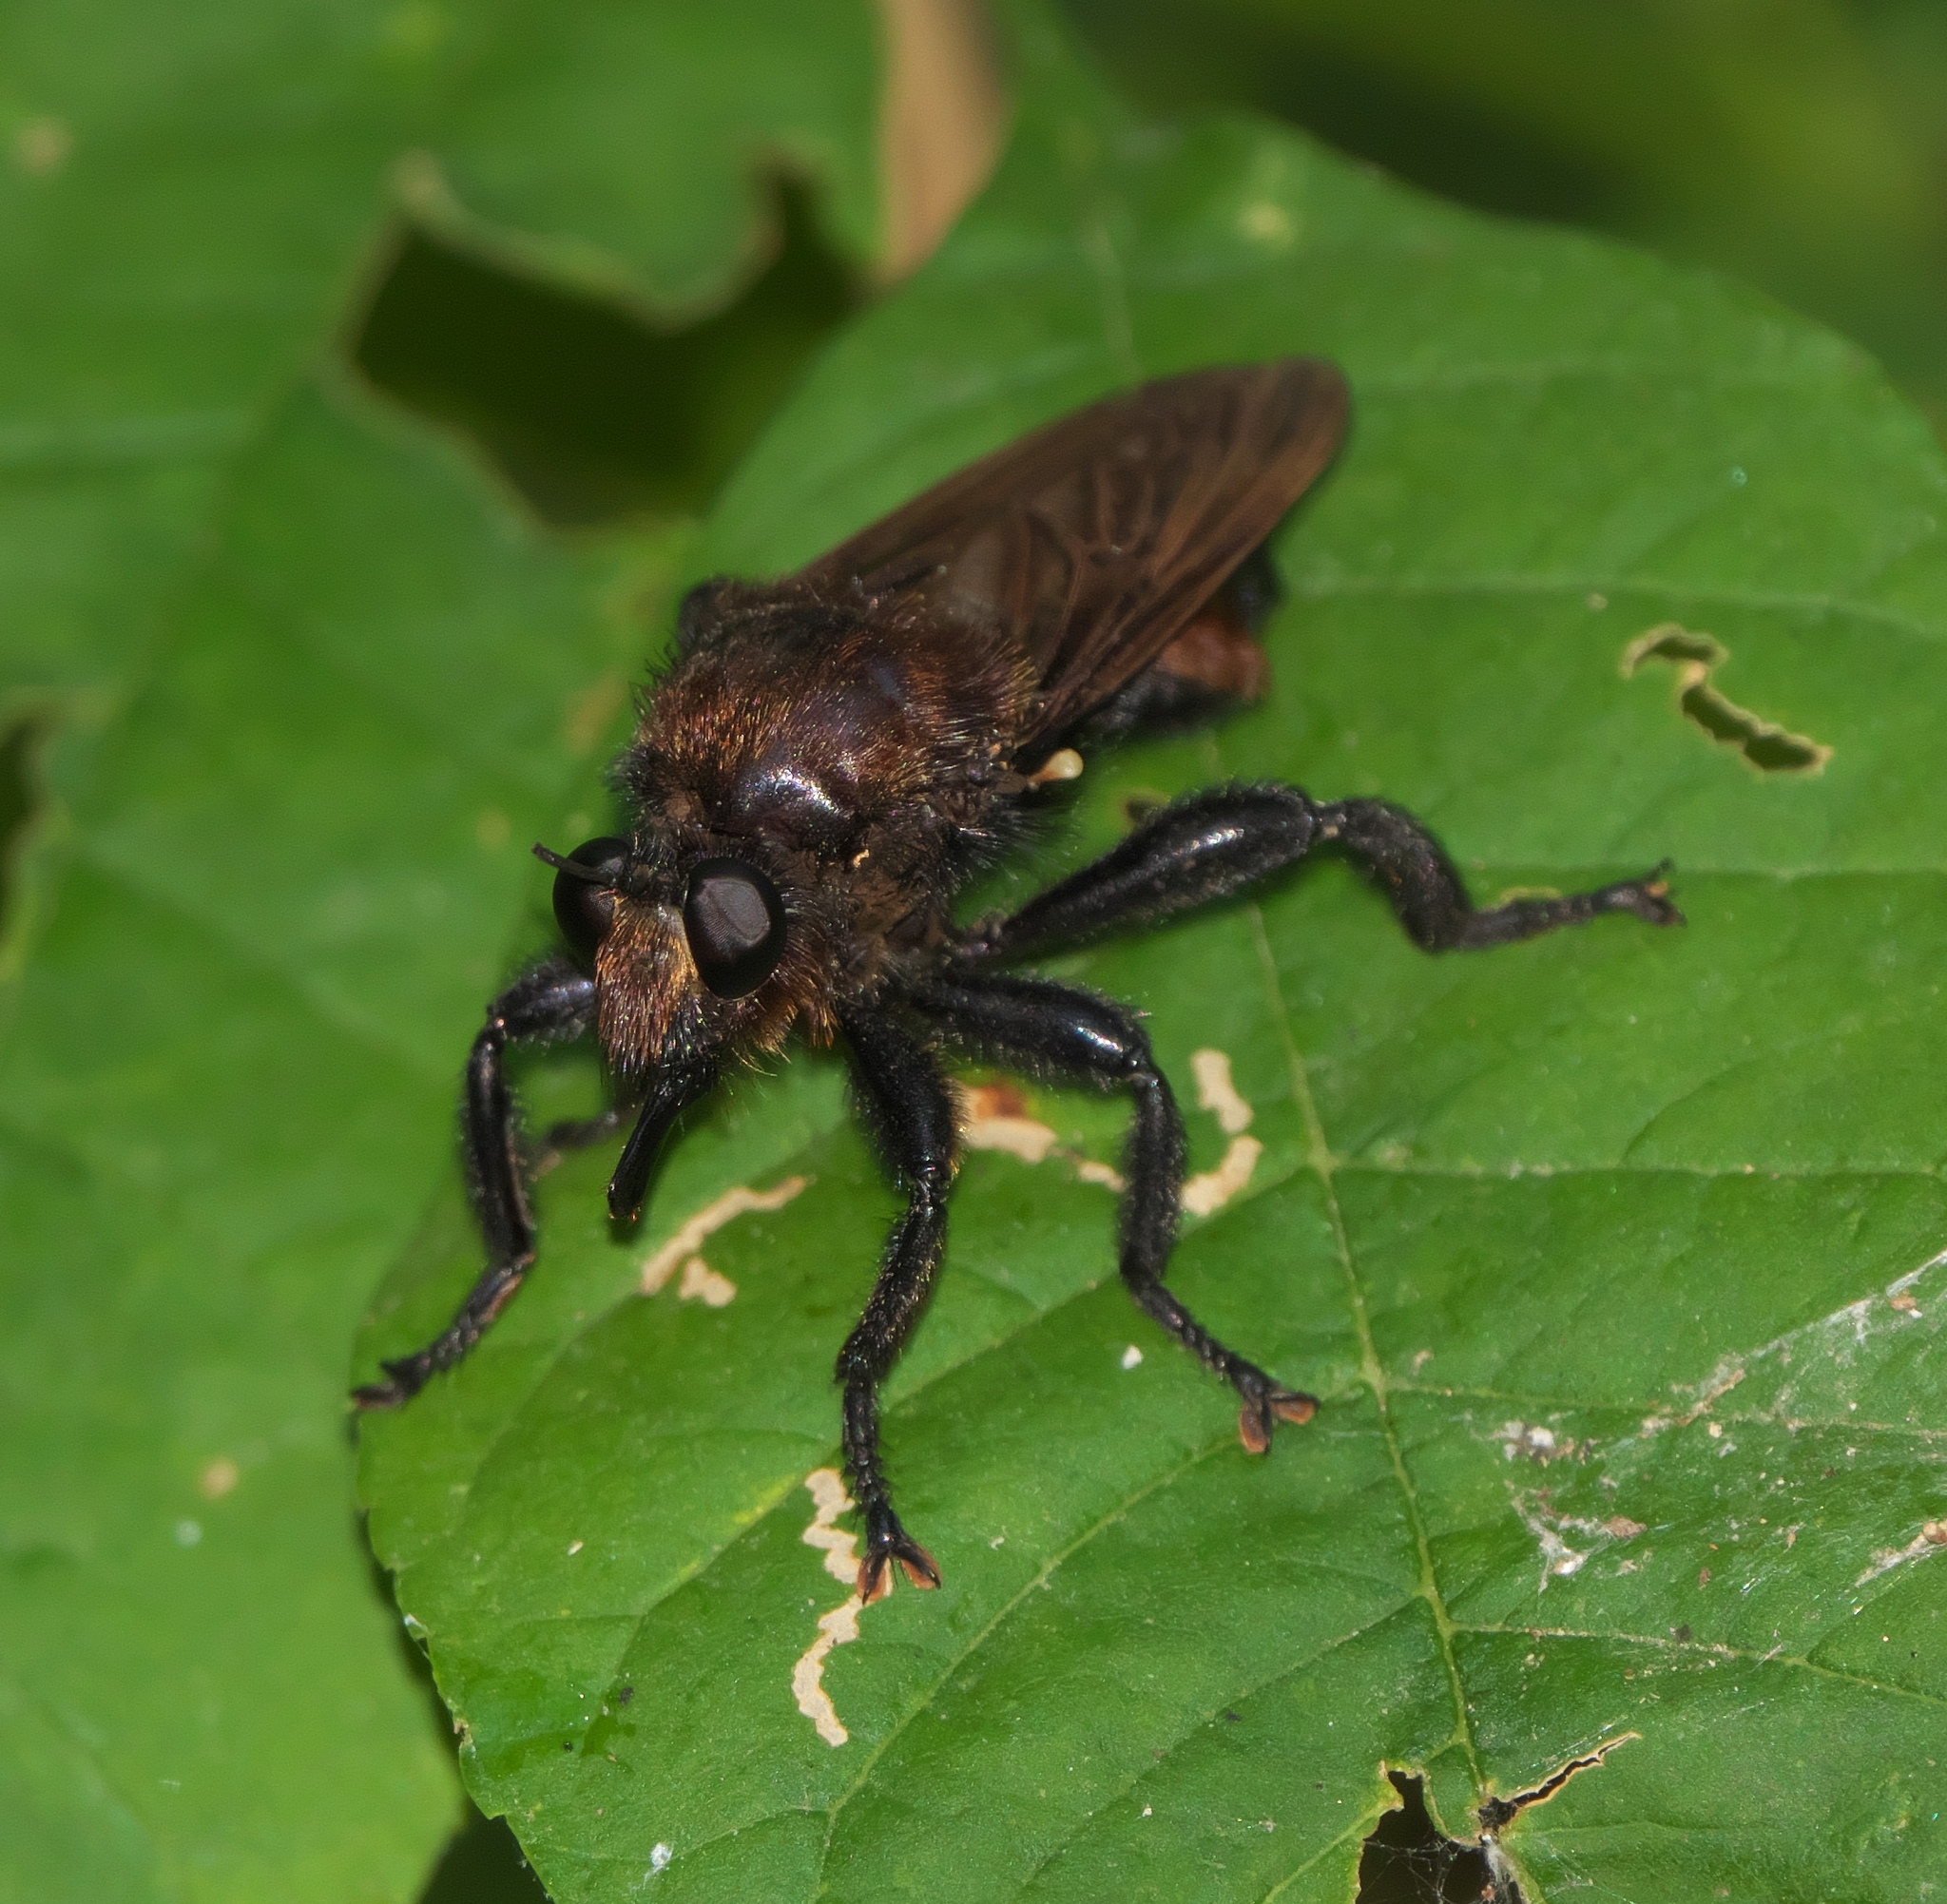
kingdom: Animalia
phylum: Arthropoda
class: Insecta
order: Diptera
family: Asilidae
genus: Laphria
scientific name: Laphria lata
